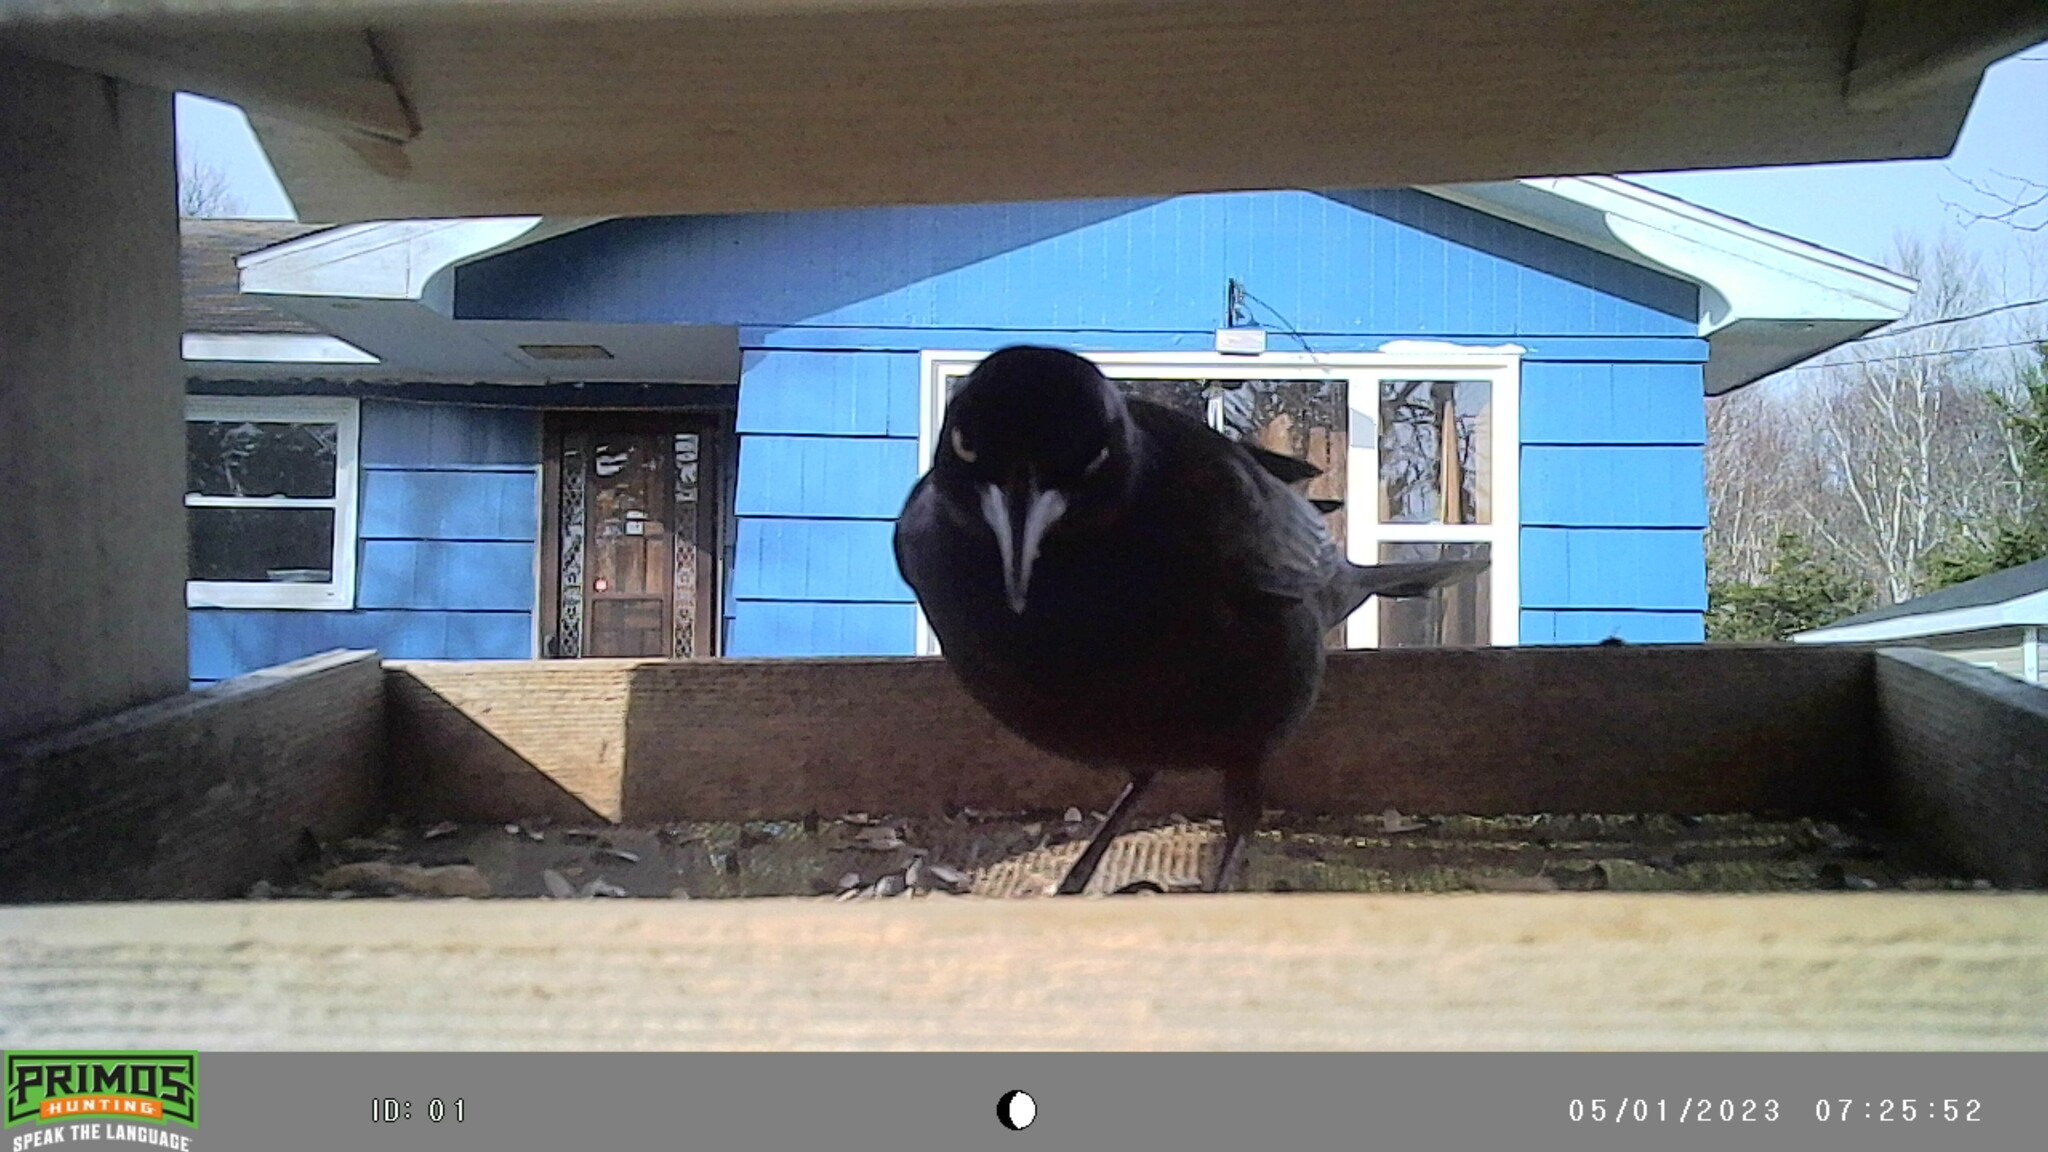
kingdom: Animalia
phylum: Chordata
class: Aves
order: Passeriformes
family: Icteridae
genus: Quiscalus
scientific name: Quiscalus quiscula
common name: Common grackle
